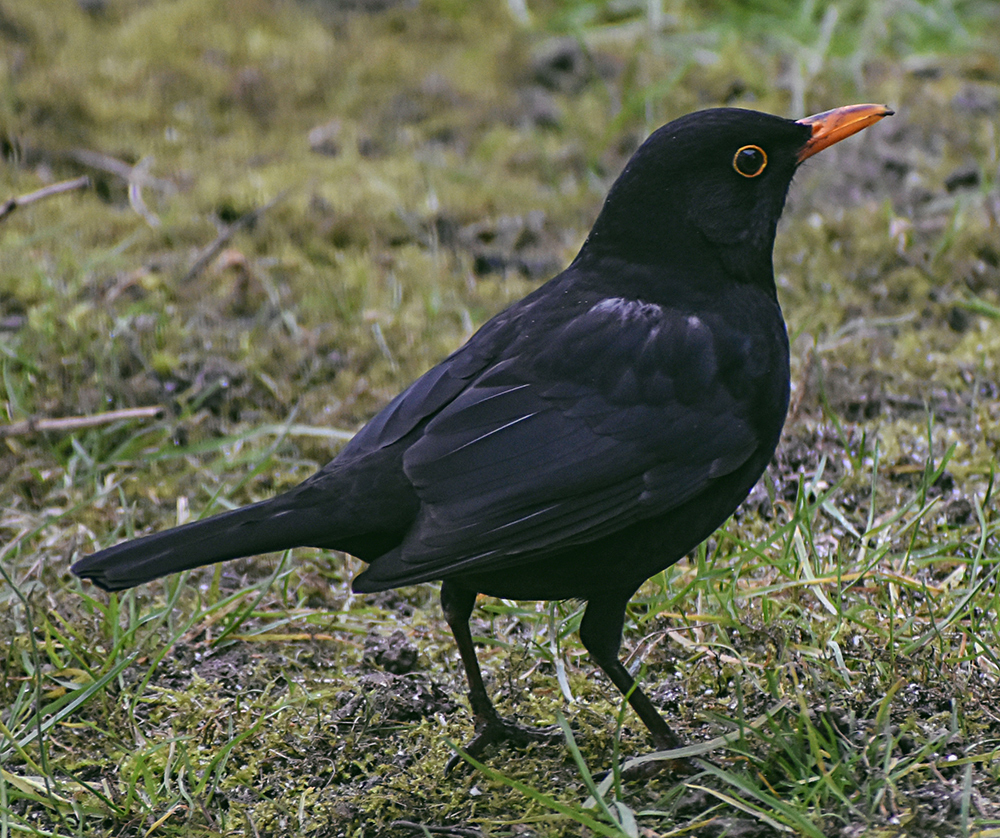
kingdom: Animalia
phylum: Chordata
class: Aves
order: Passeriformes
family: Turdidae
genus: Turdus
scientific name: Turdus merula
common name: Common blackbird
